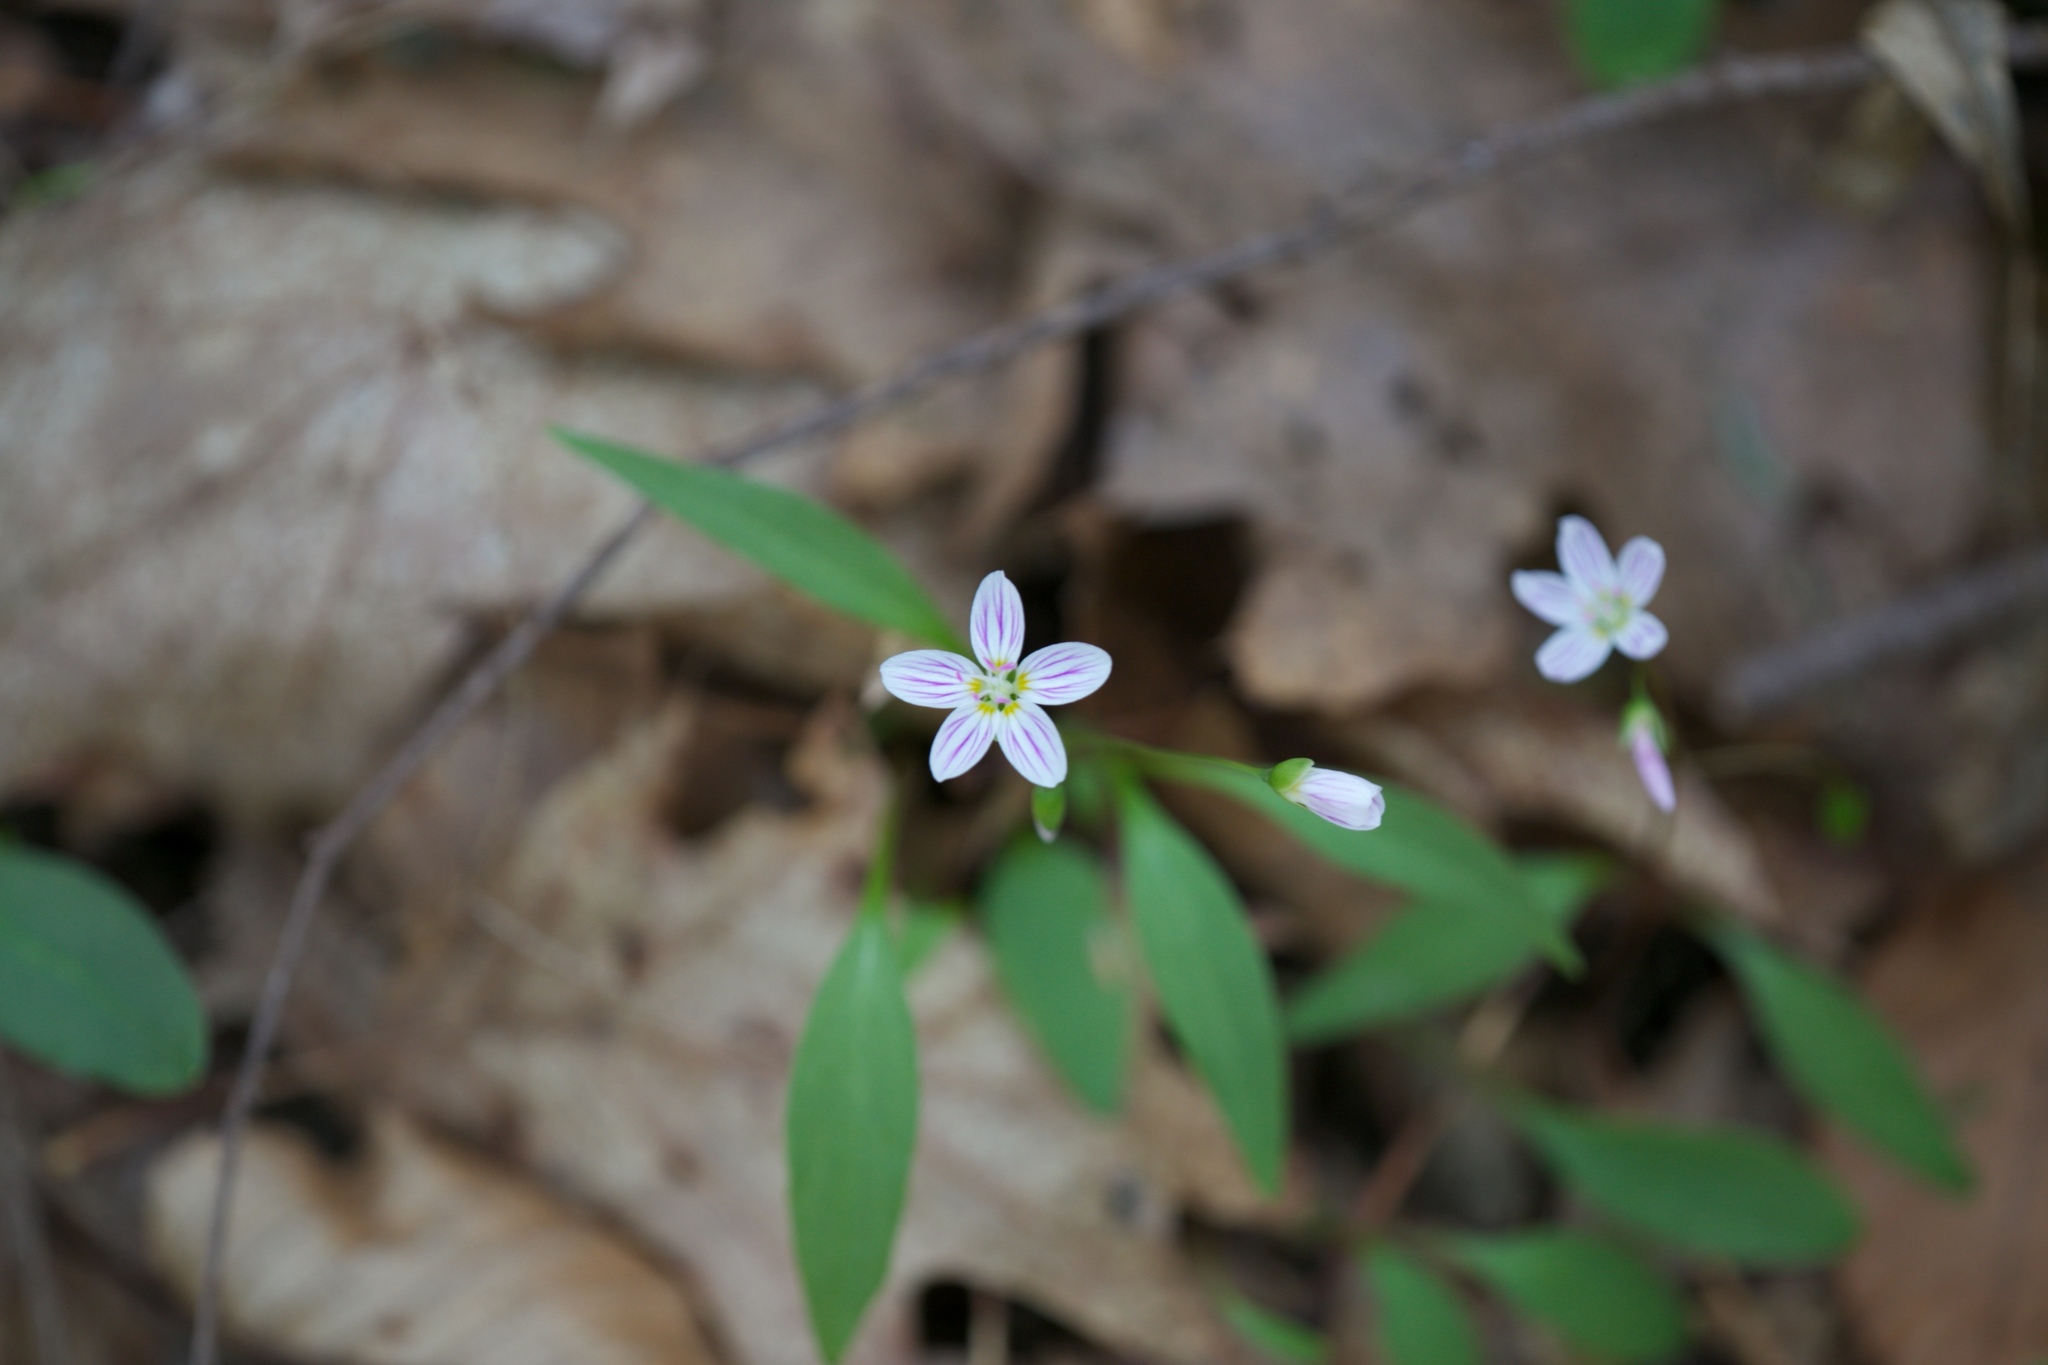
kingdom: Plantae
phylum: Tracheophyta
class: Magnoliopsida
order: Caryophyllales
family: Montiaceae
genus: Claytonia
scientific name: Claytonia caroliniana
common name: Carolina spring beauty
